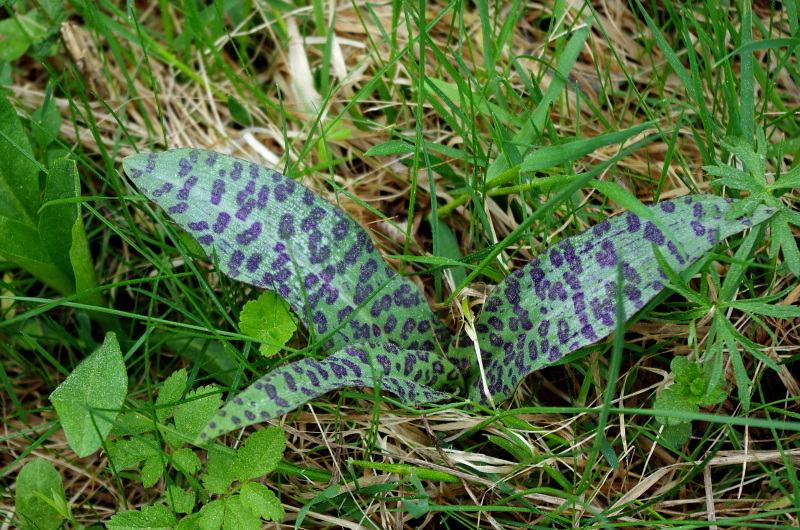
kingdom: Plantae
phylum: Tracheophyta
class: Liliopsida
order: Asparagales
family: Orchidaceae
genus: Dactylorhiza
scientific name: Dactylorhiza maculata
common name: Heath spotted-orchid
